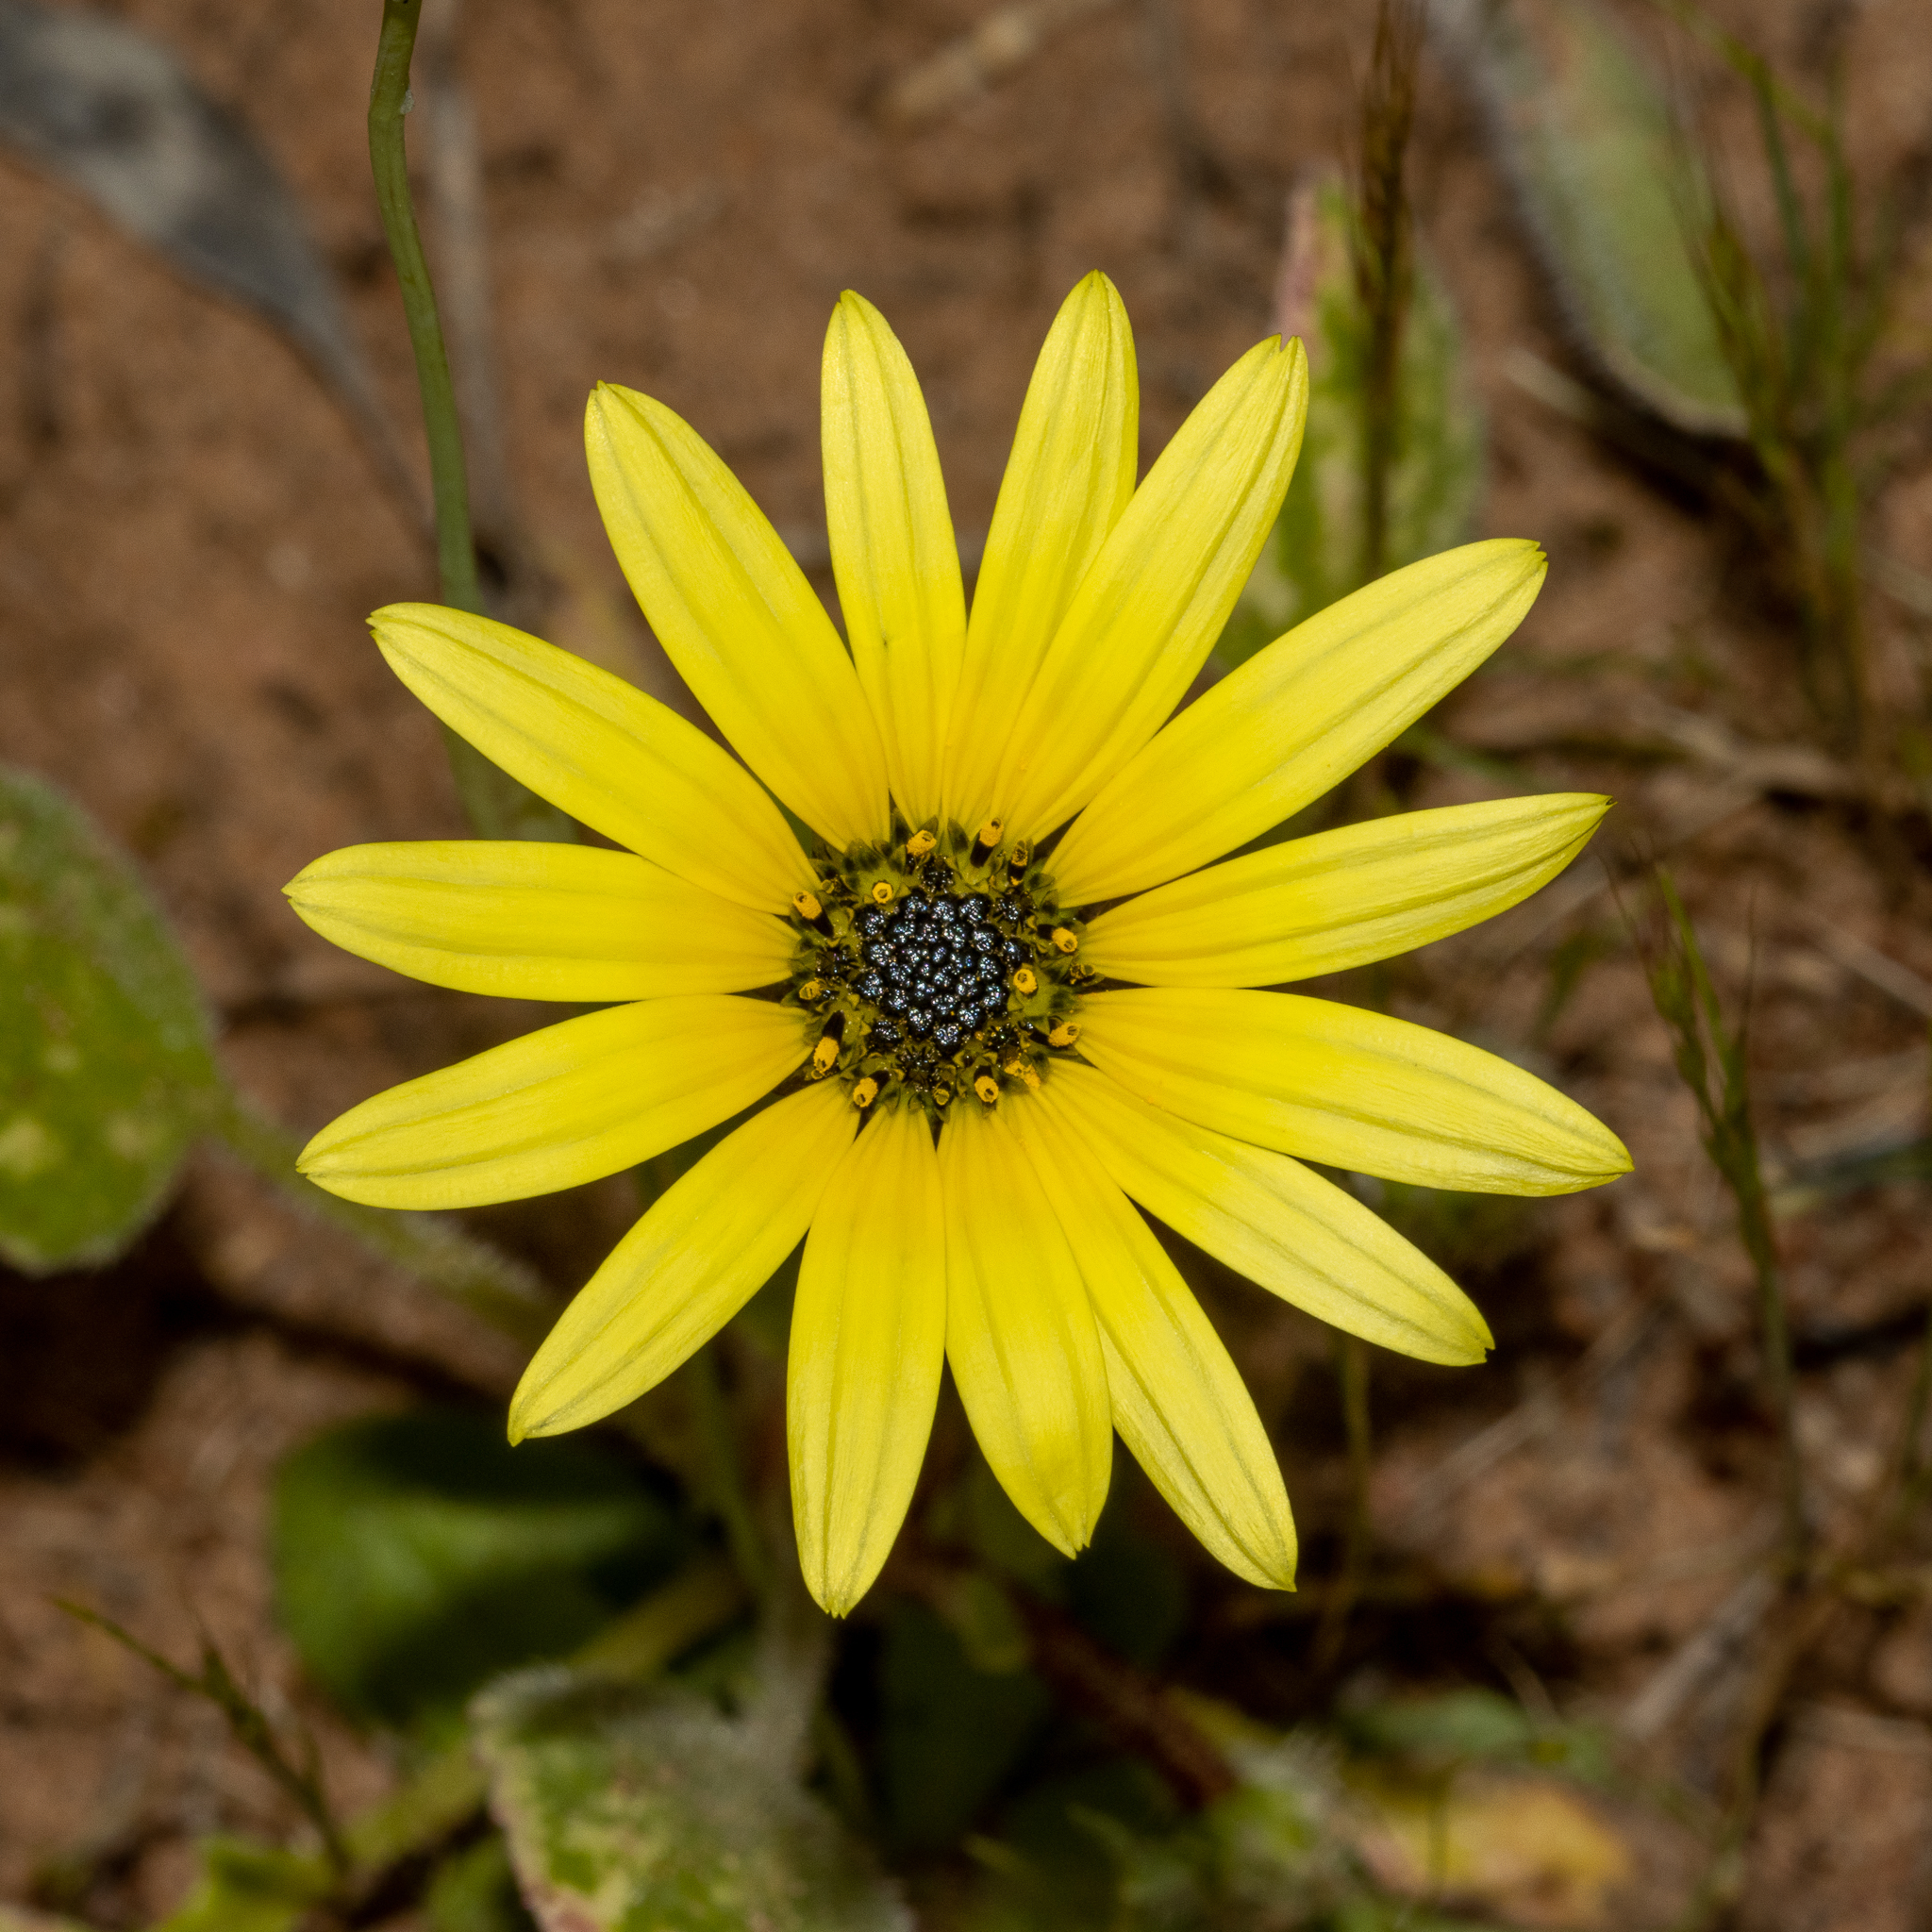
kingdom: Plantae
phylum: Tracheophyta
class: Magnoliopsida
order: Asterales
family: Asteraceae
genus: Arctotheca
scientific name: Arctotheca calendula
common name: Capeweed
